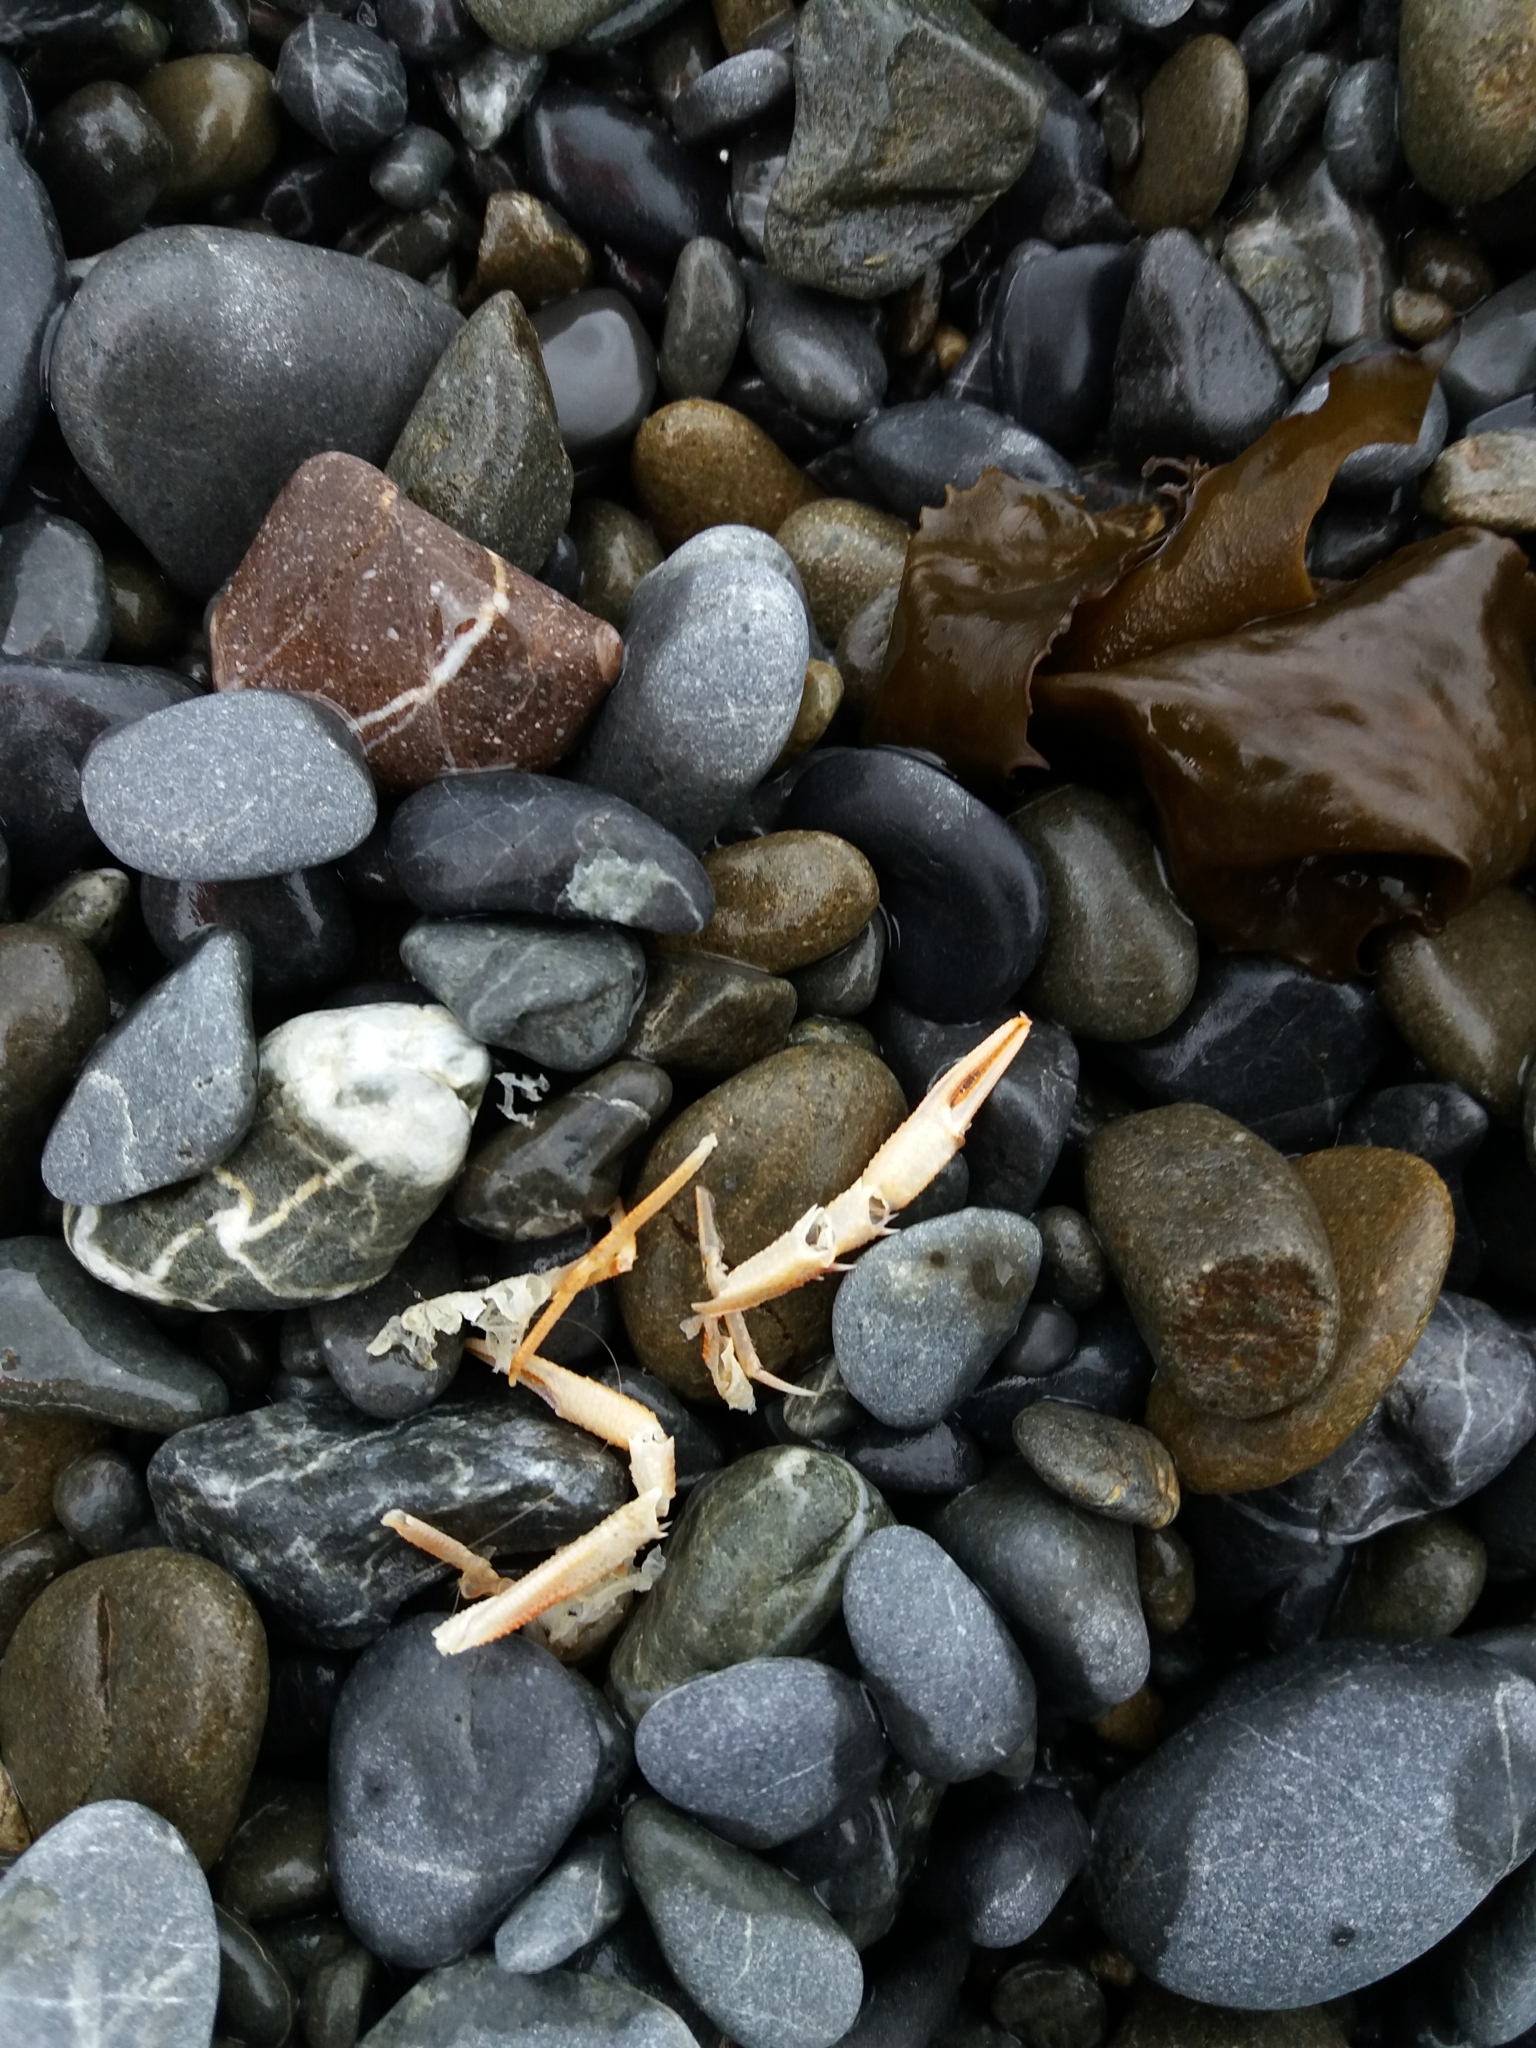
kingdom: Animalia
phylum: Arthropoda
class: Malacostraca
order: Decapoda
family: Munididae
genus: Grimothea
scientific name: Grimothea gregaria
